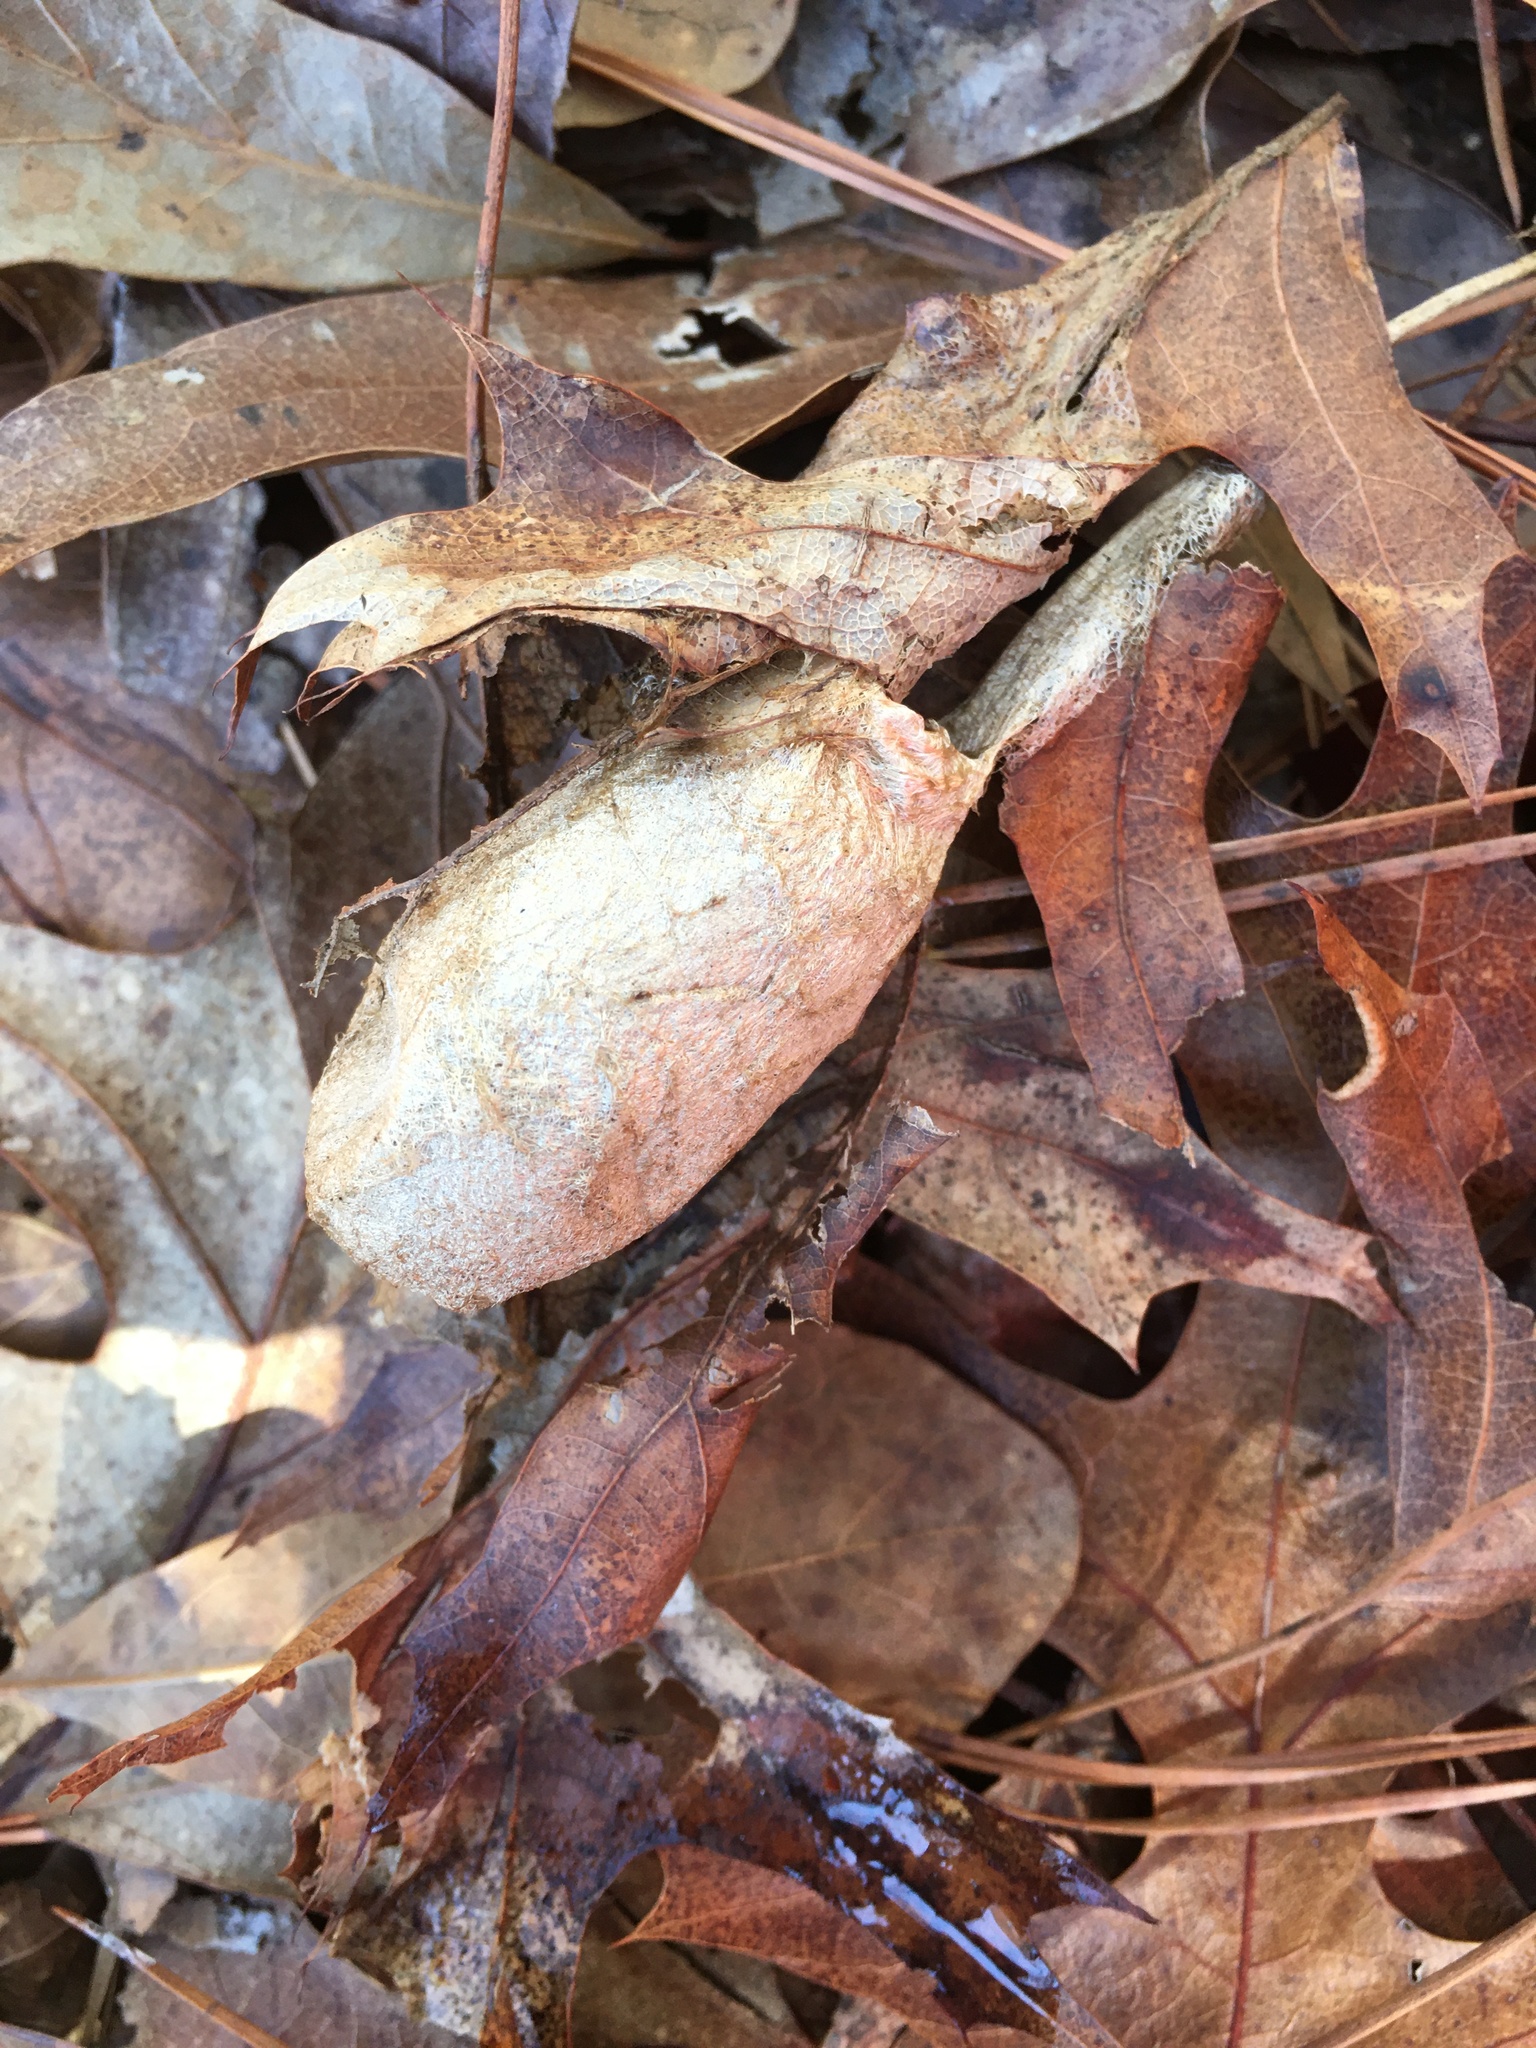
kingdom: Animalia
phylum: Arthropoda
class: Insecta
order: Lepidoptera
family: Saturniidae
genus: Antheraea
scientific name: Antheraea polyphemus
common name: Polyphemus moth
